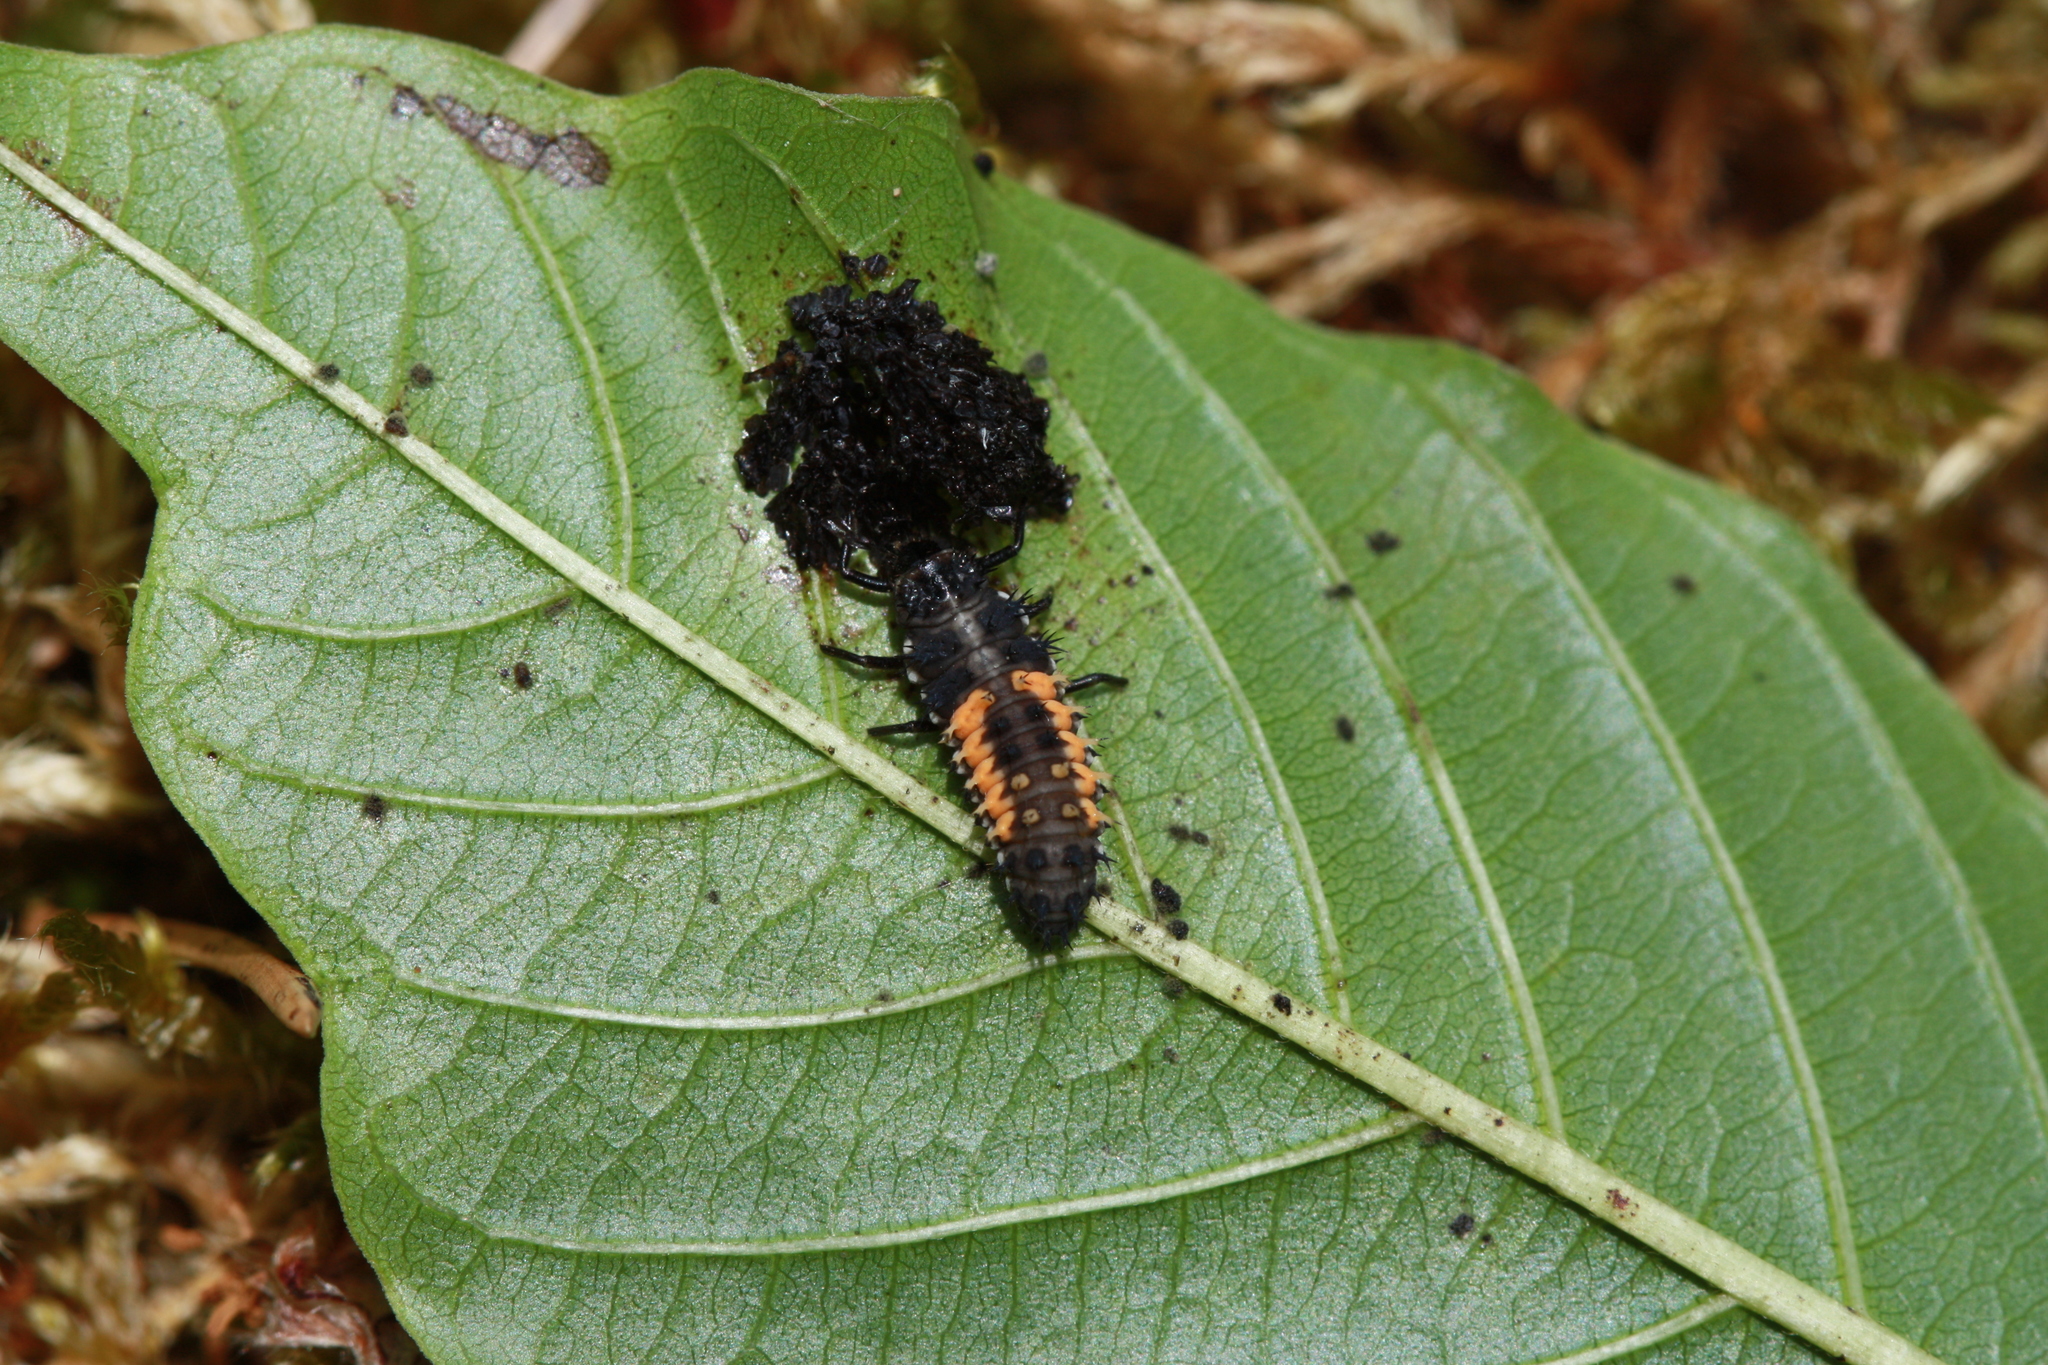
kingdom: Animalia
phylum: Arthropoda
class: Insecta
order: Coleoptera
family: Coccinellidae
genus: Harmonia
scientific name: Harmonia axyridis
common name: Harlequin ladybird
